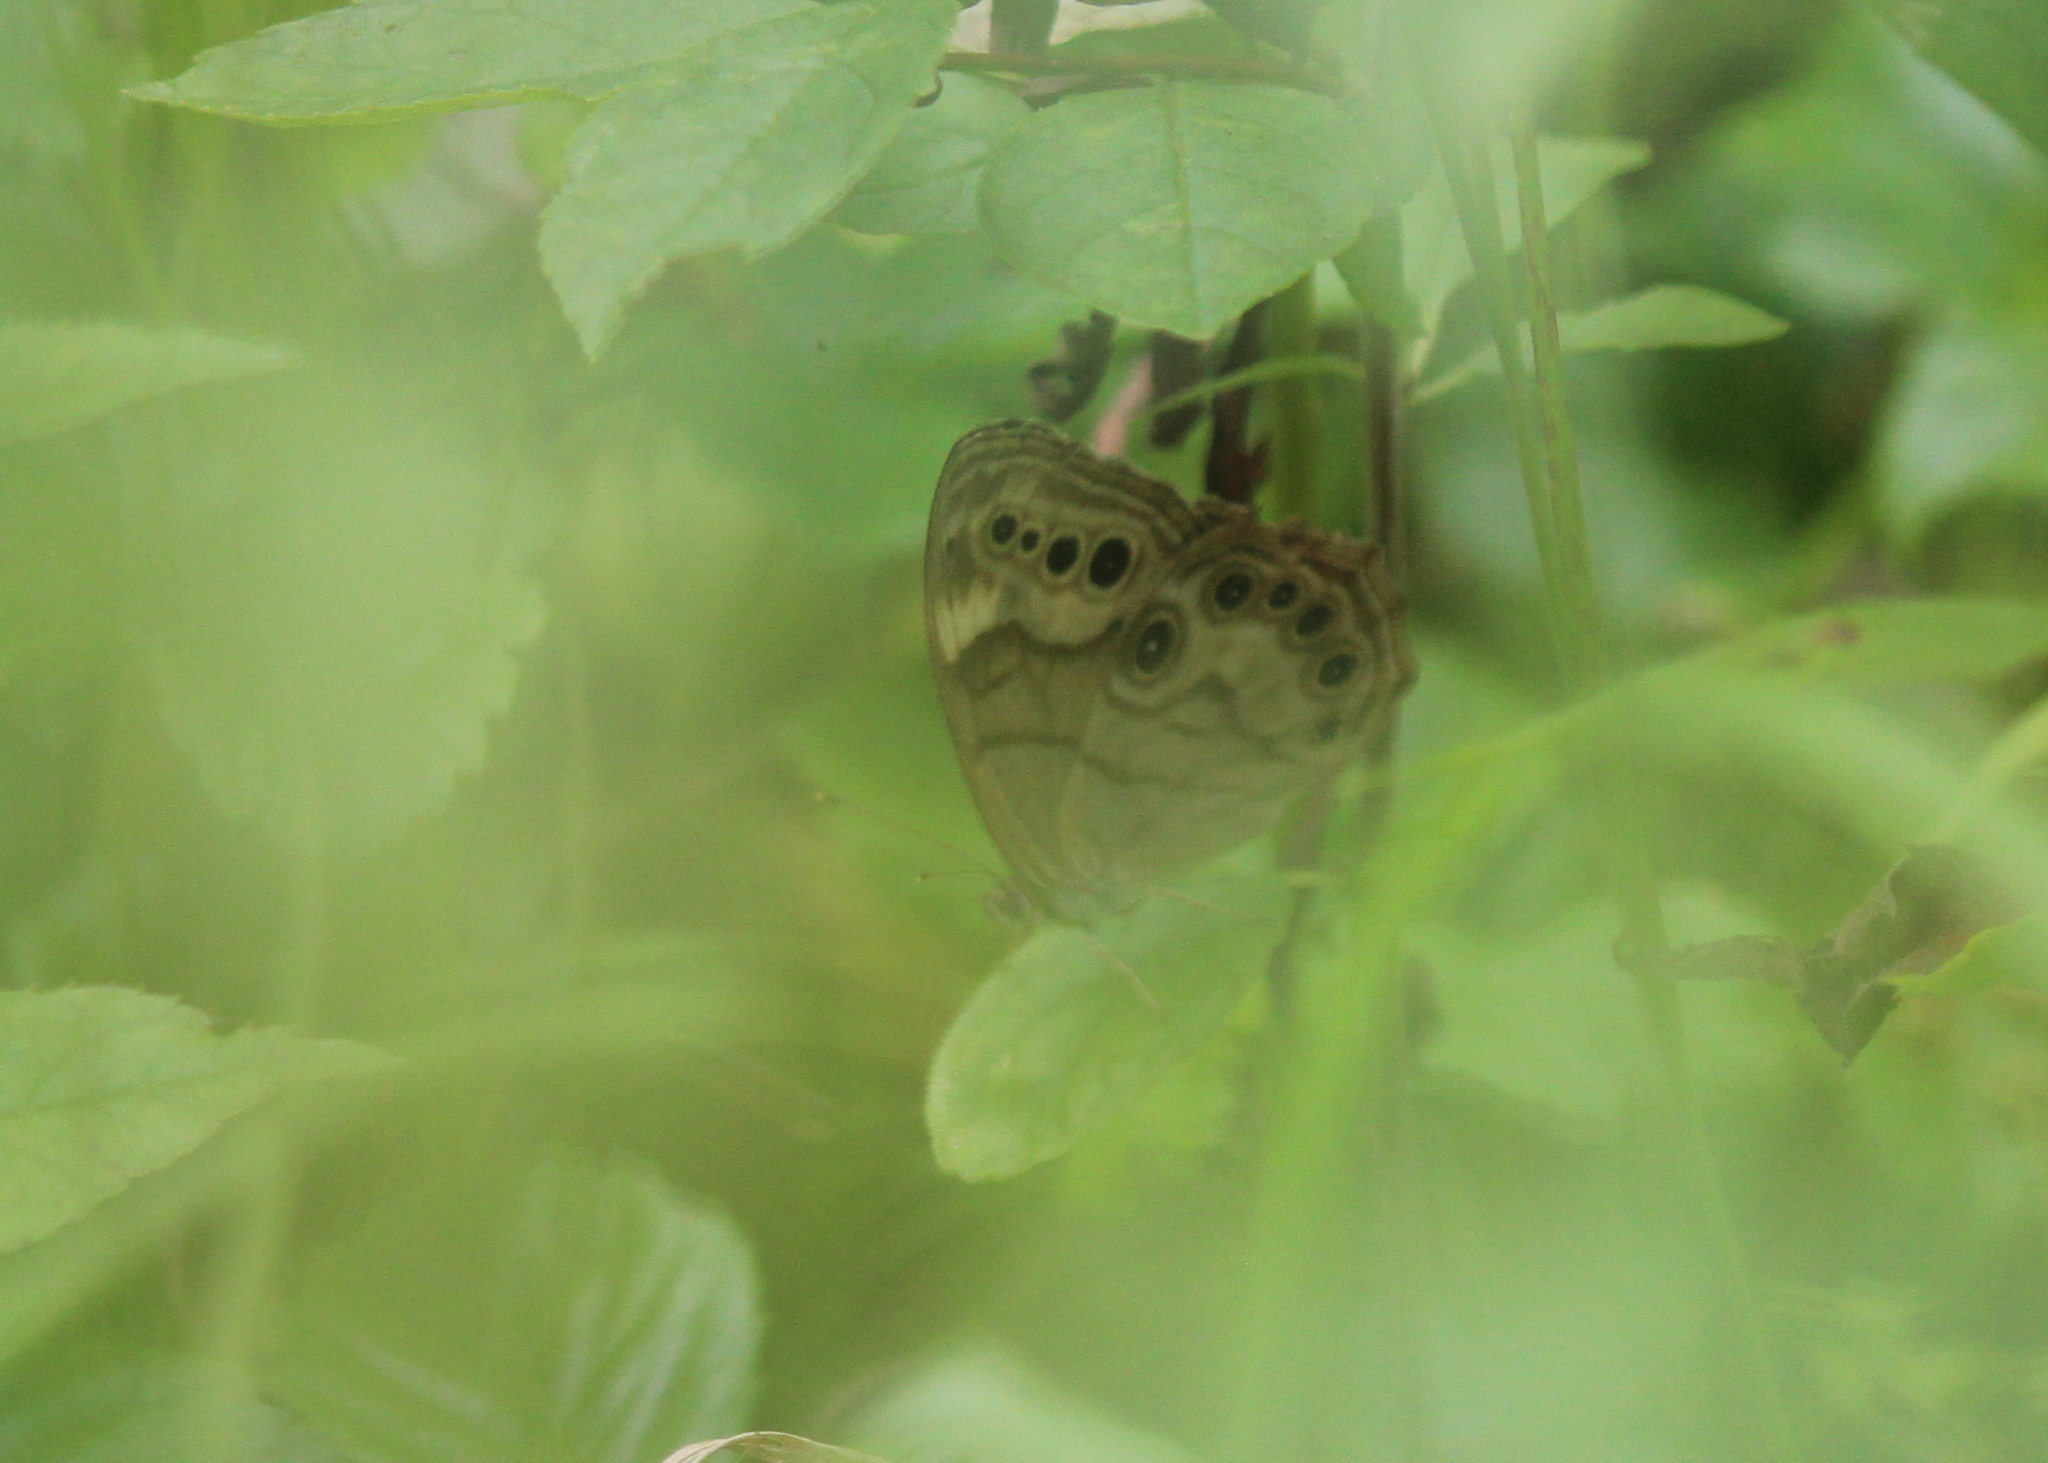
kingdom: Animalia
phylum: Arthropoda
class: Insecta
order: Lepidoptera
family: Nymphalidae
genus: Lethe
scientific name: Lethe anthedon
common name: Northern pearly-eye
